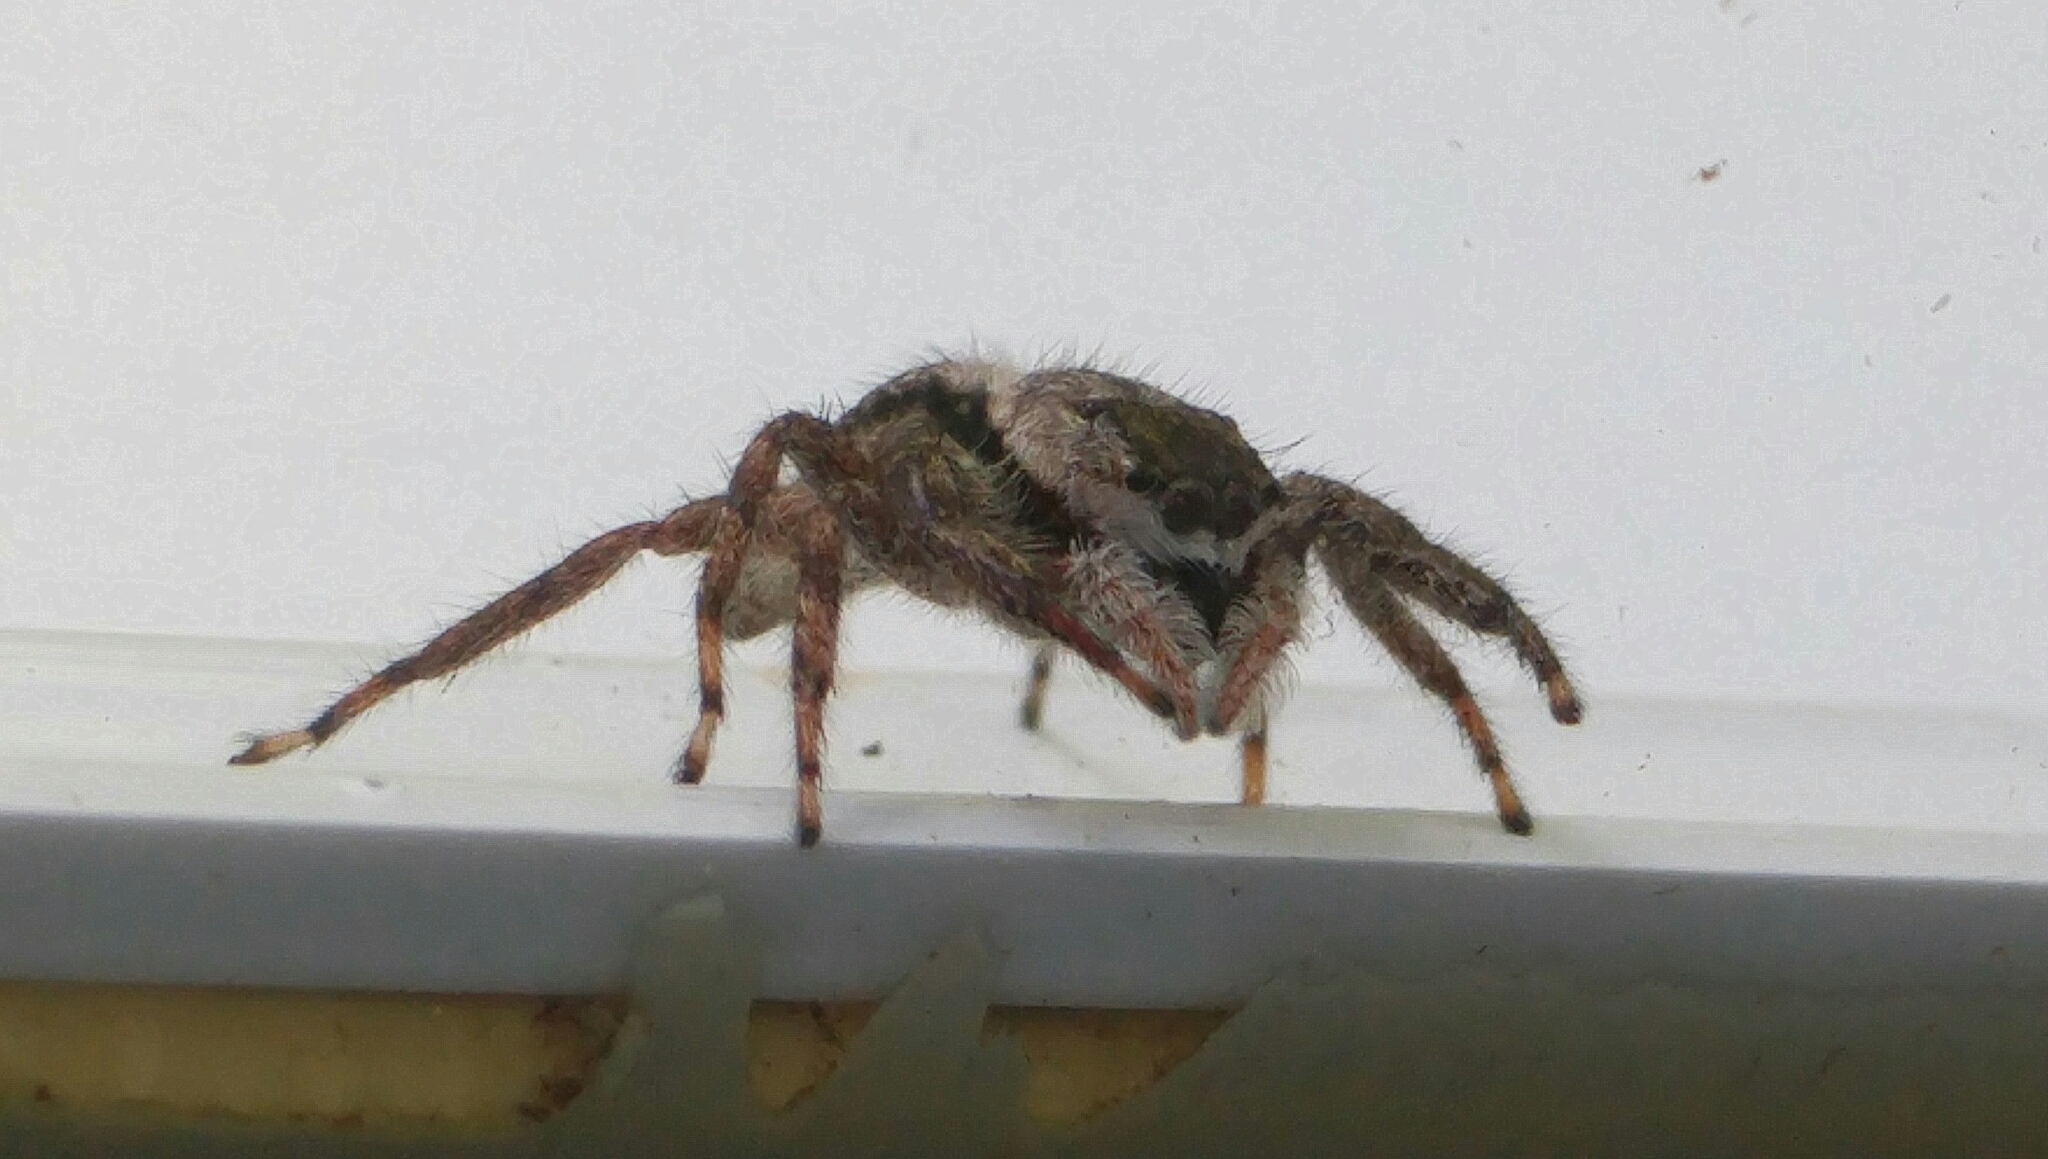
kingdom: Animalia
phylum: Arthropoda
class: Arachnida
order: Araneae
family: Salticidae
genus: Platycryptus
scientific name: Platycryptus undatus
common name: Tan jumping spider
